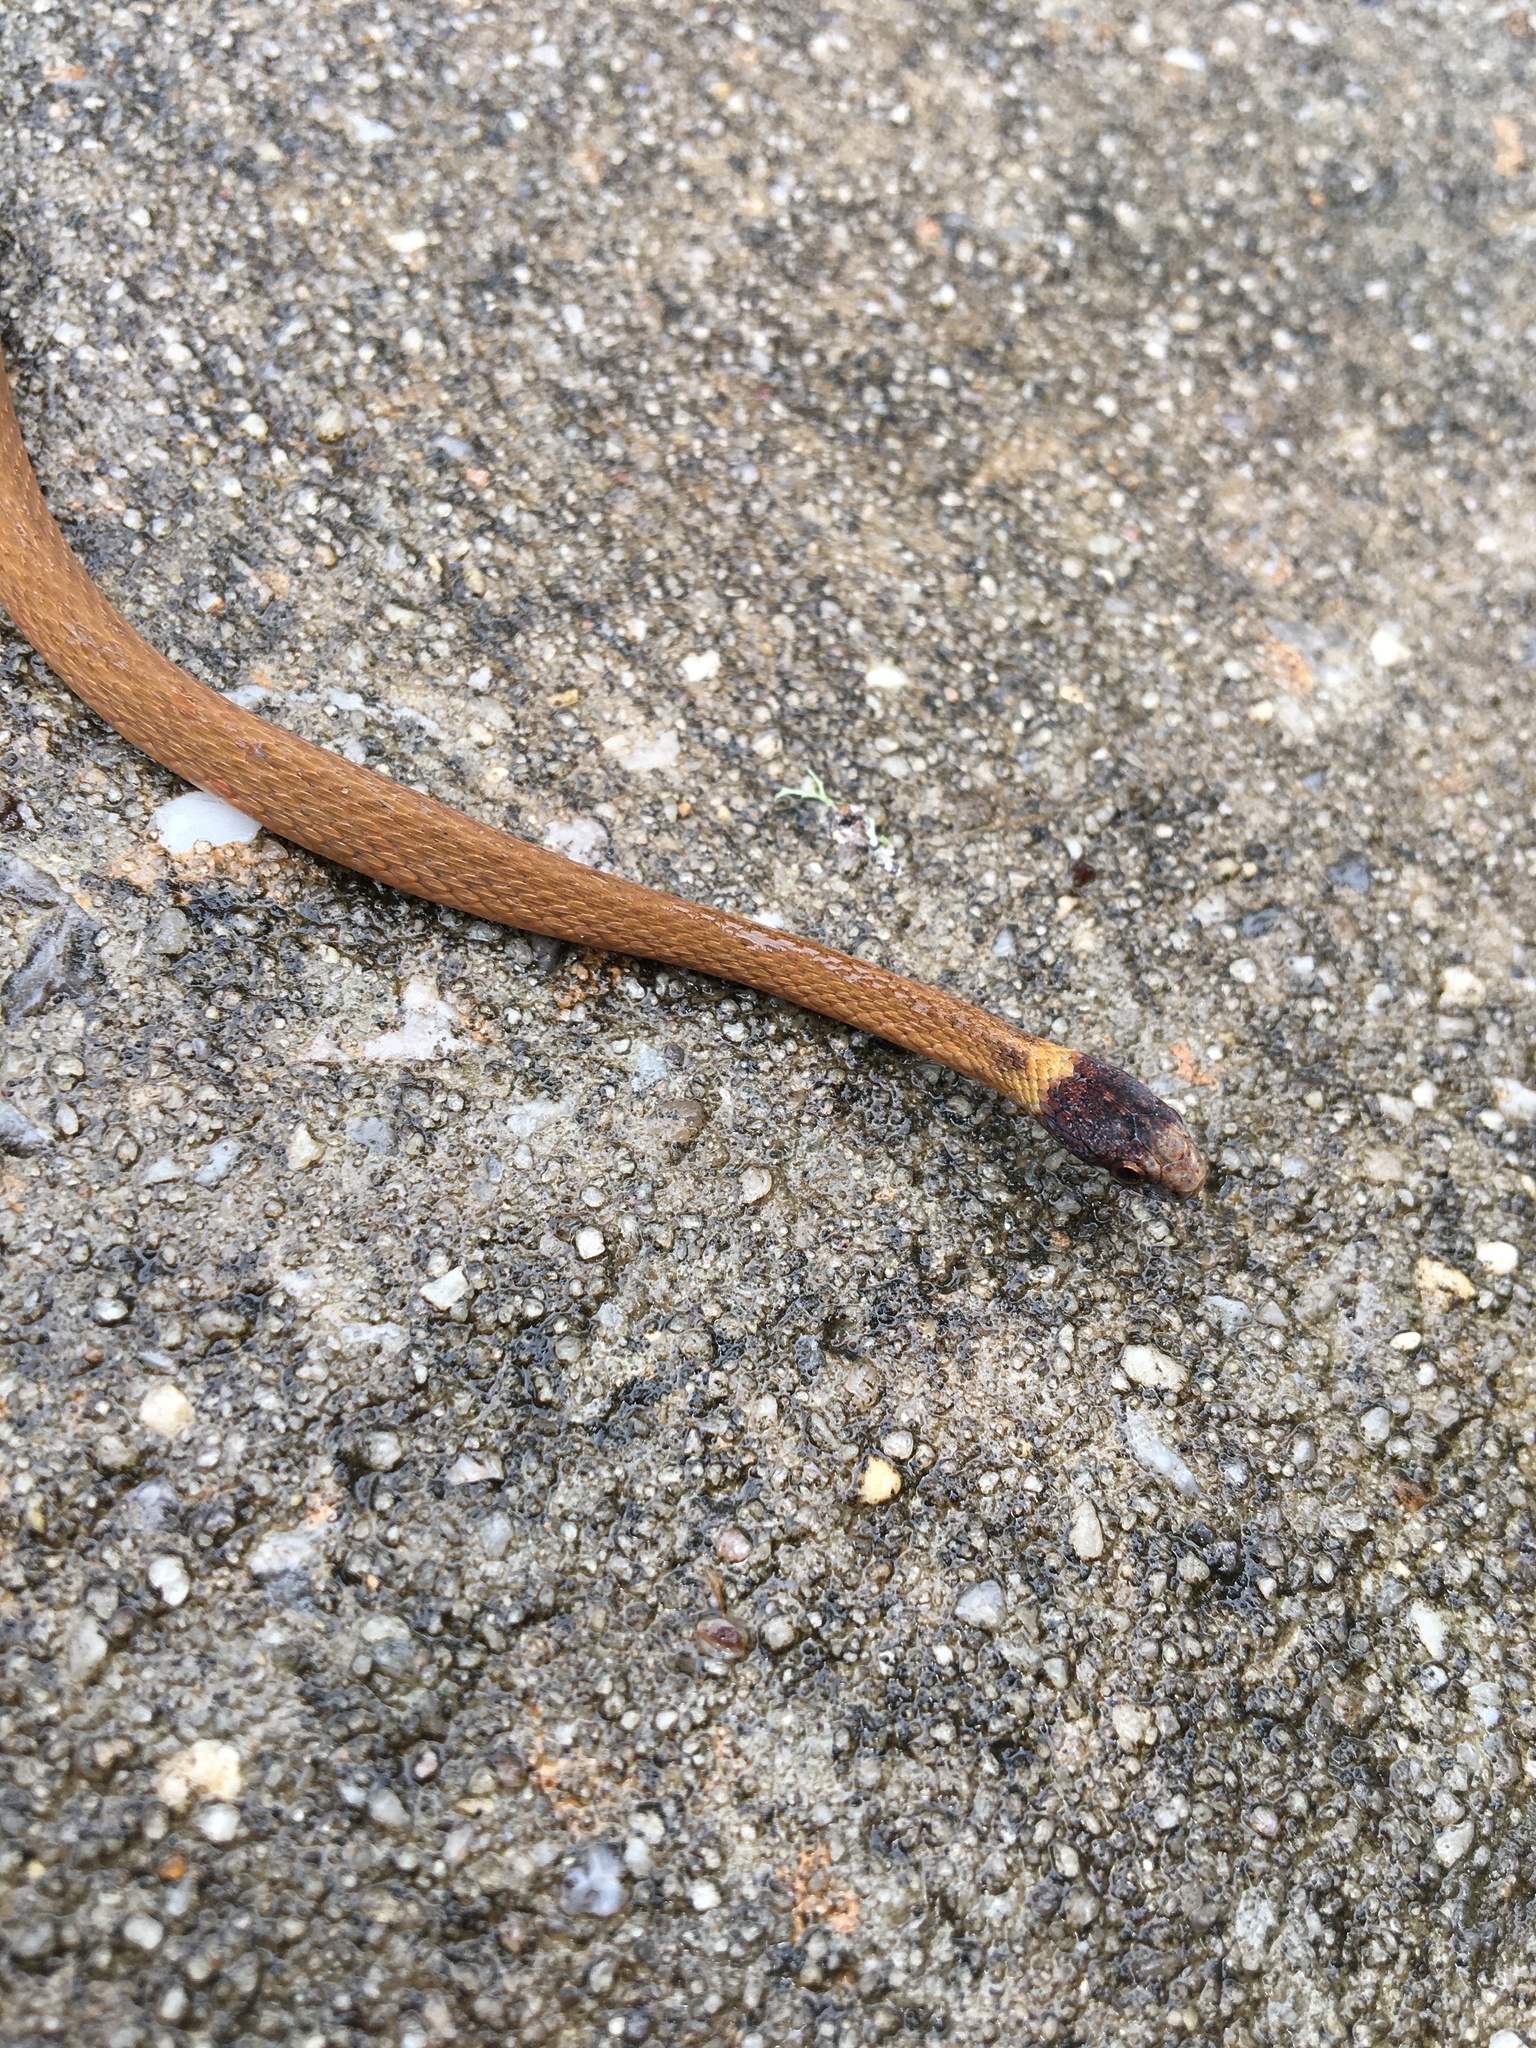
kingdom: Animalia
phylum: Chordata
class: Squamata
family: Colubridae
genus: Storeria
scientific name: Storeria occipitomaculata
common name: Redbelly snake
